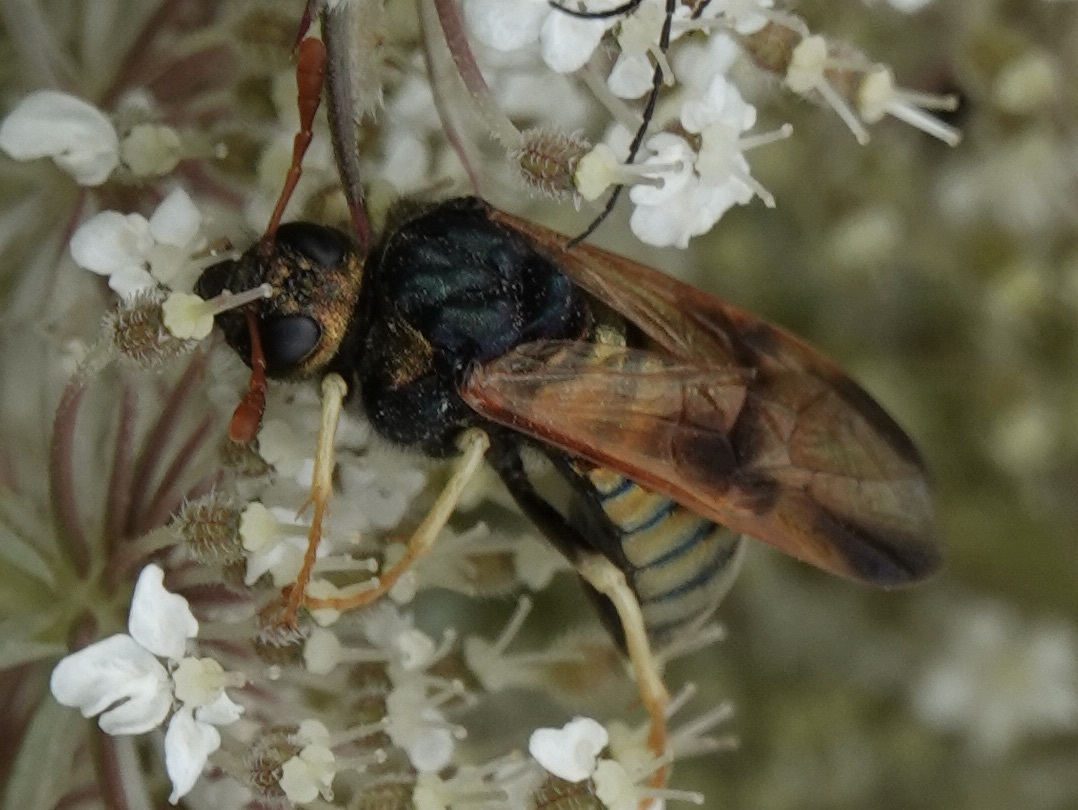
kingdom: Animalia
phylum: Arthropoda
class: Insecta
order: Hymenoptera
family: Cimbicidae
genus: Abia
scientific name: Abia nitens
